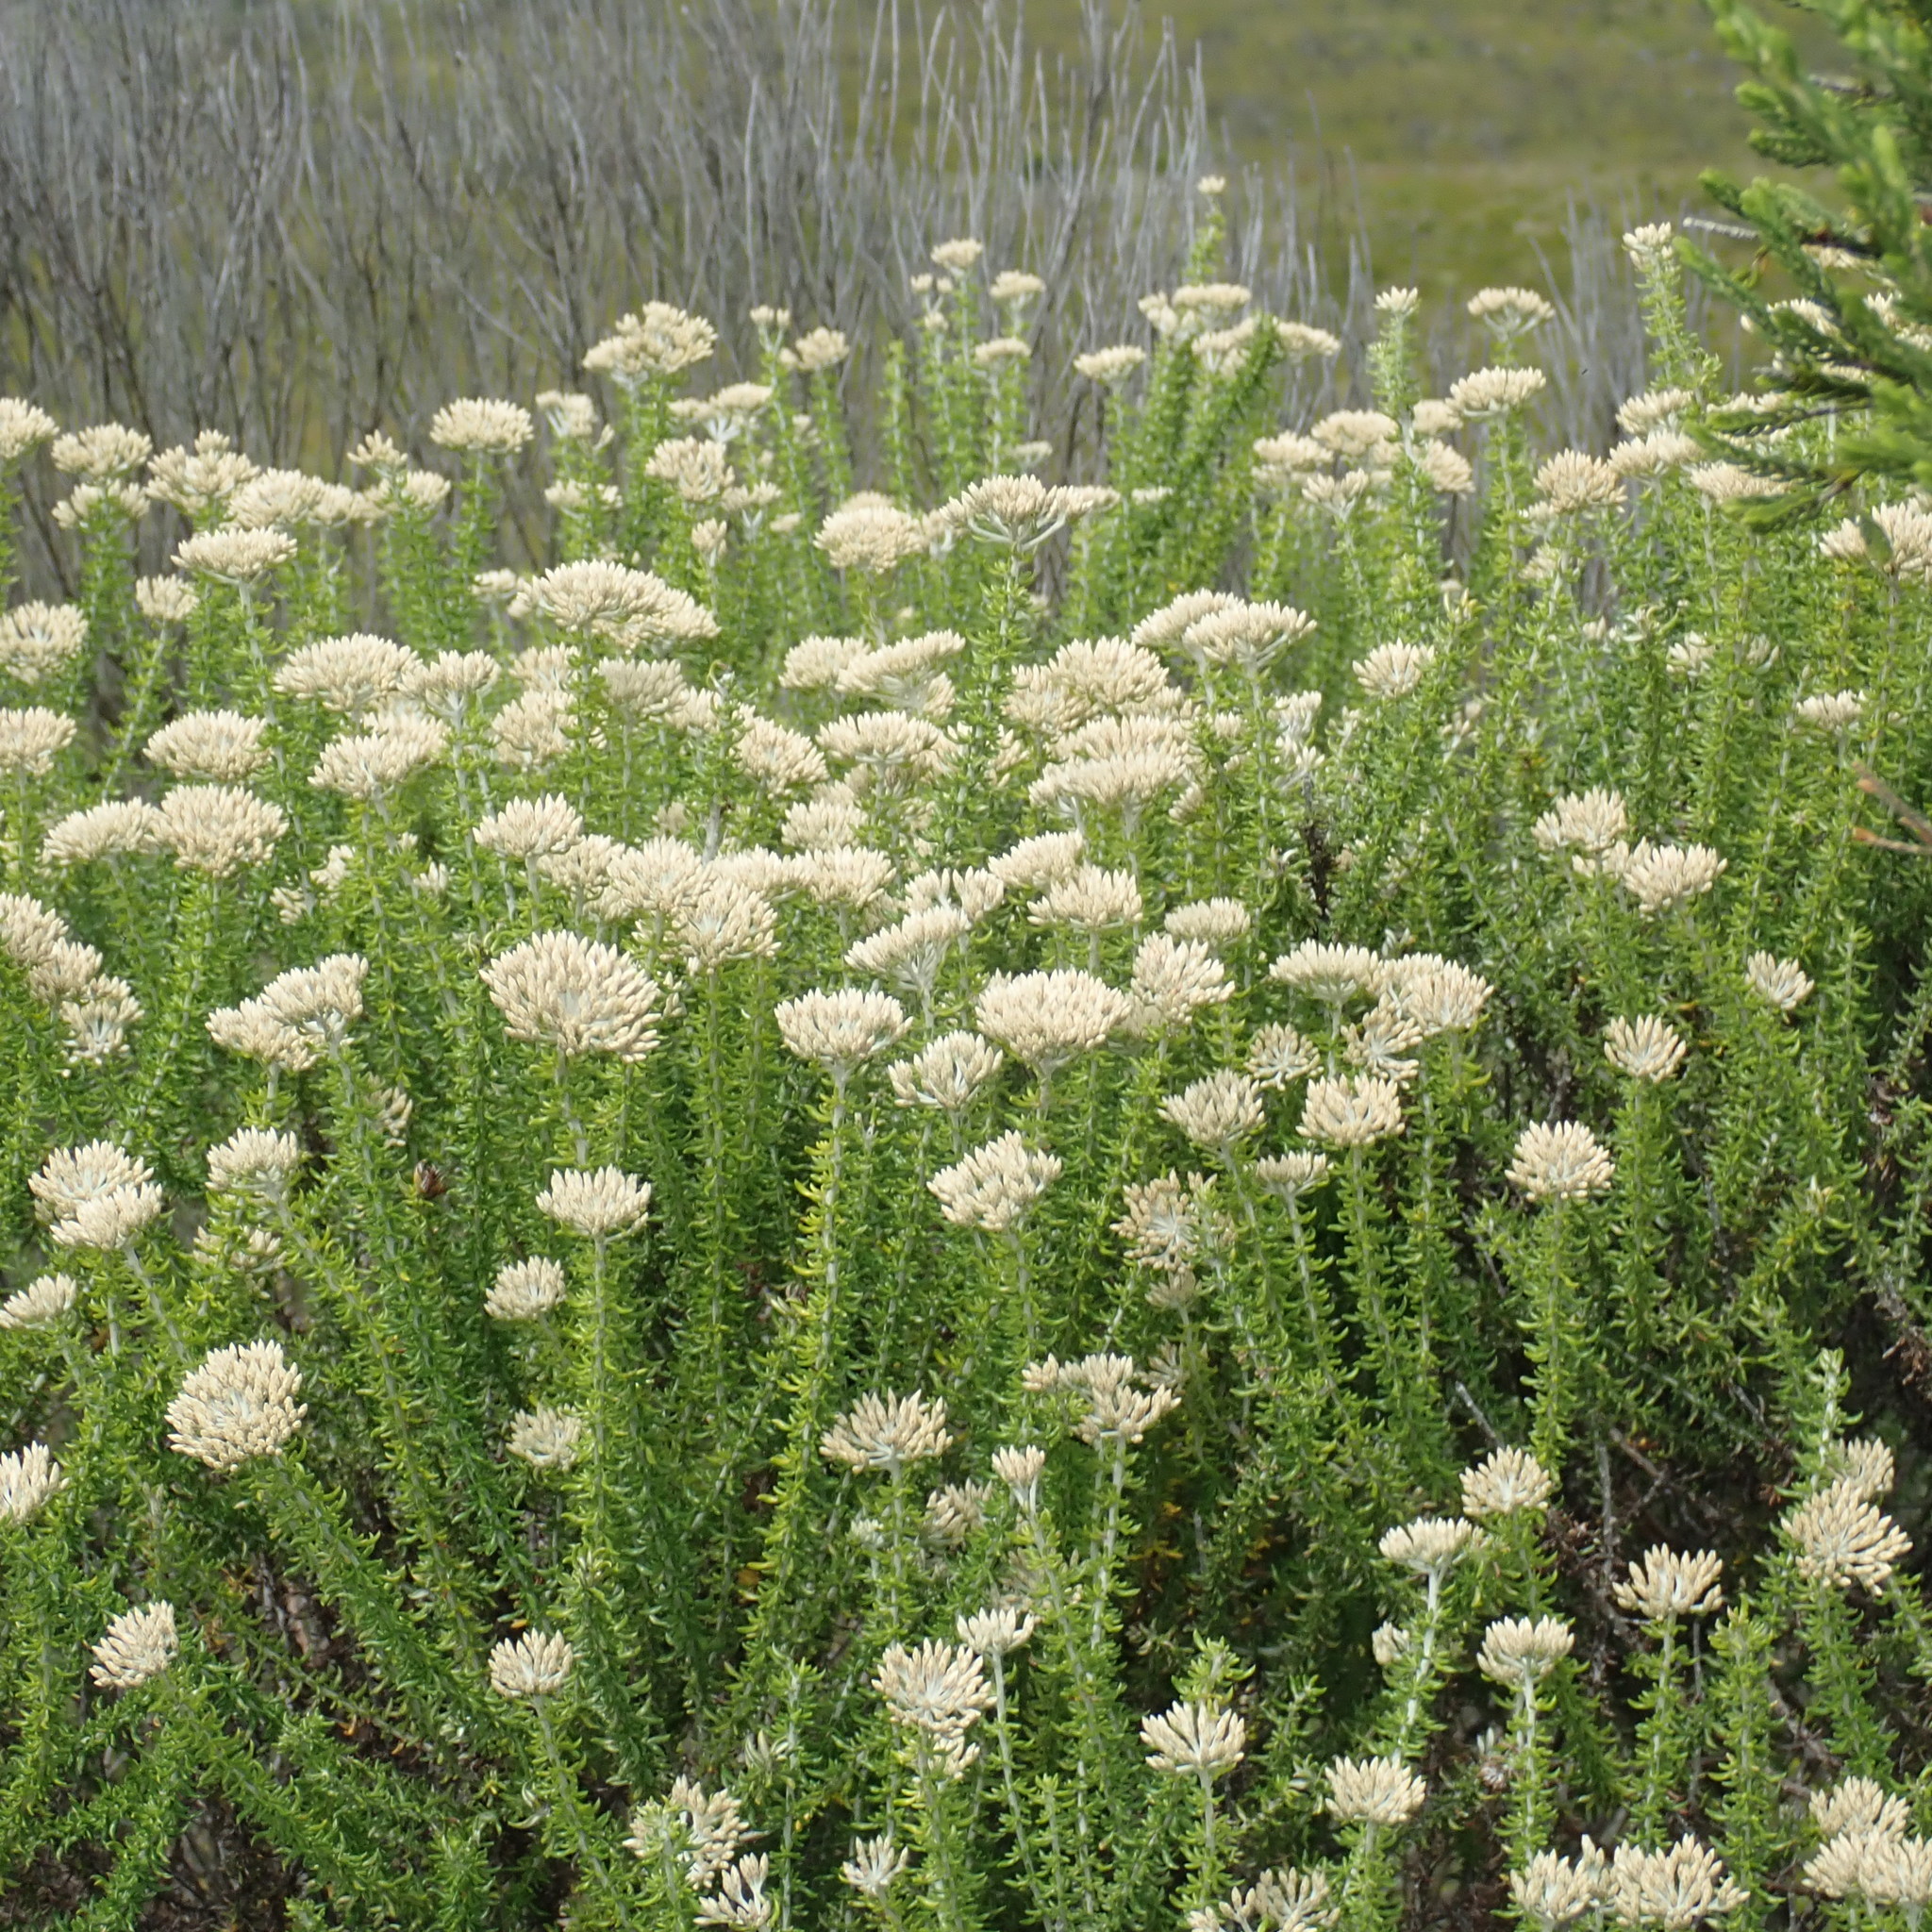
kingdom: Plantae
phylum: Tracheophyta
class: Magnoliopsida
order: Asterales
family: Asteraceae
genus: Metalasia
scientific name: Metalasia muricata
